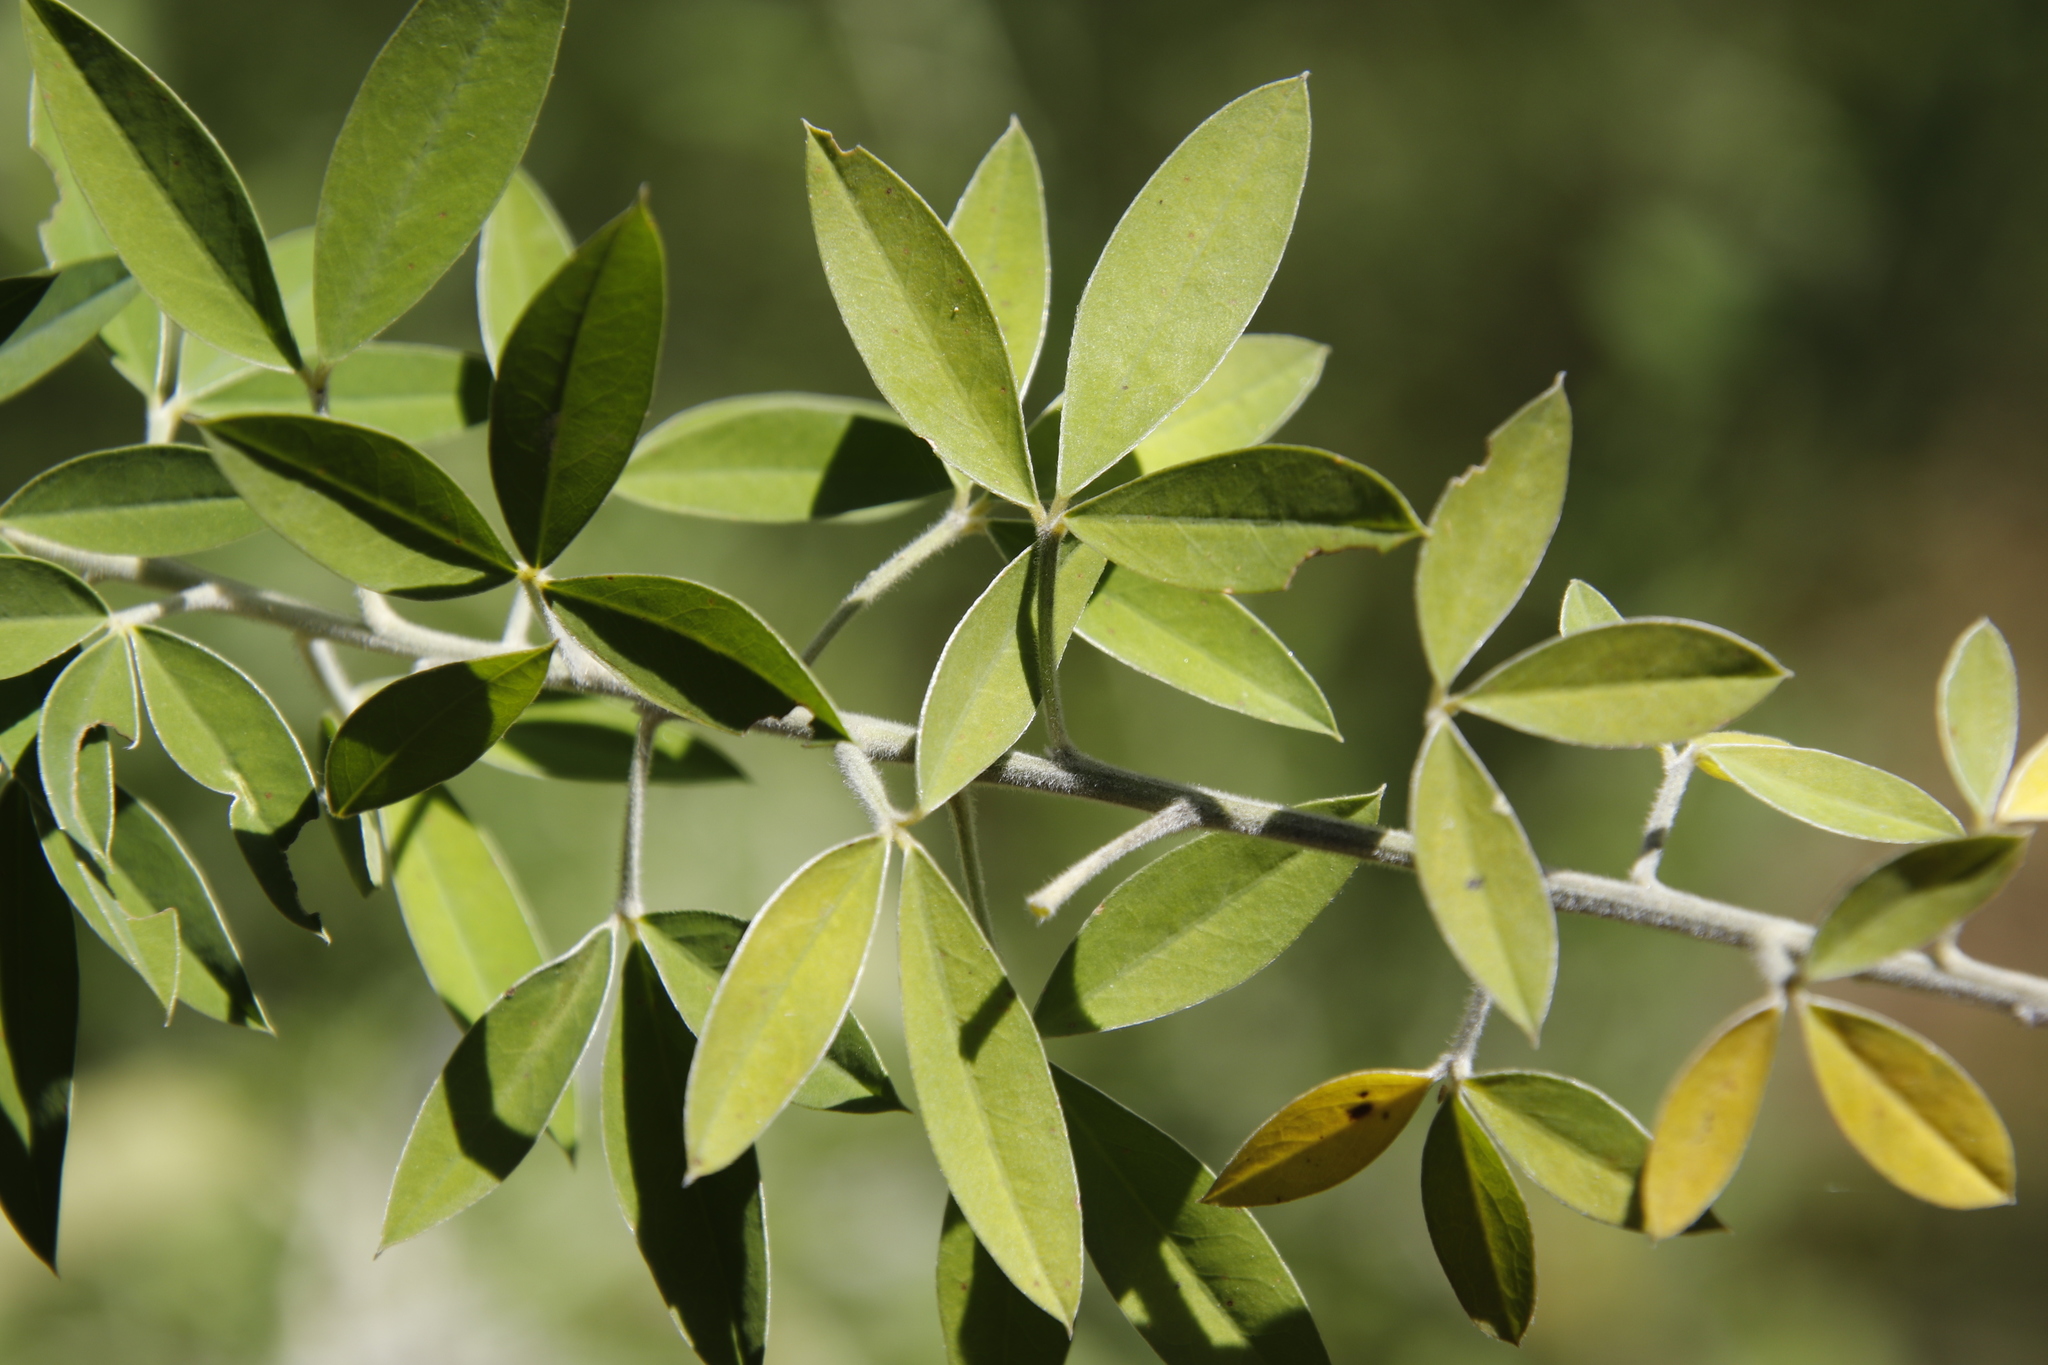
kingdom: Plantae
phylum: Tracheophyta
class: Magnoliopsida
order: Fabales
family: Fabaceae
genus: Chamaecytisus
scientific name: Chamaecytisus prolifer
